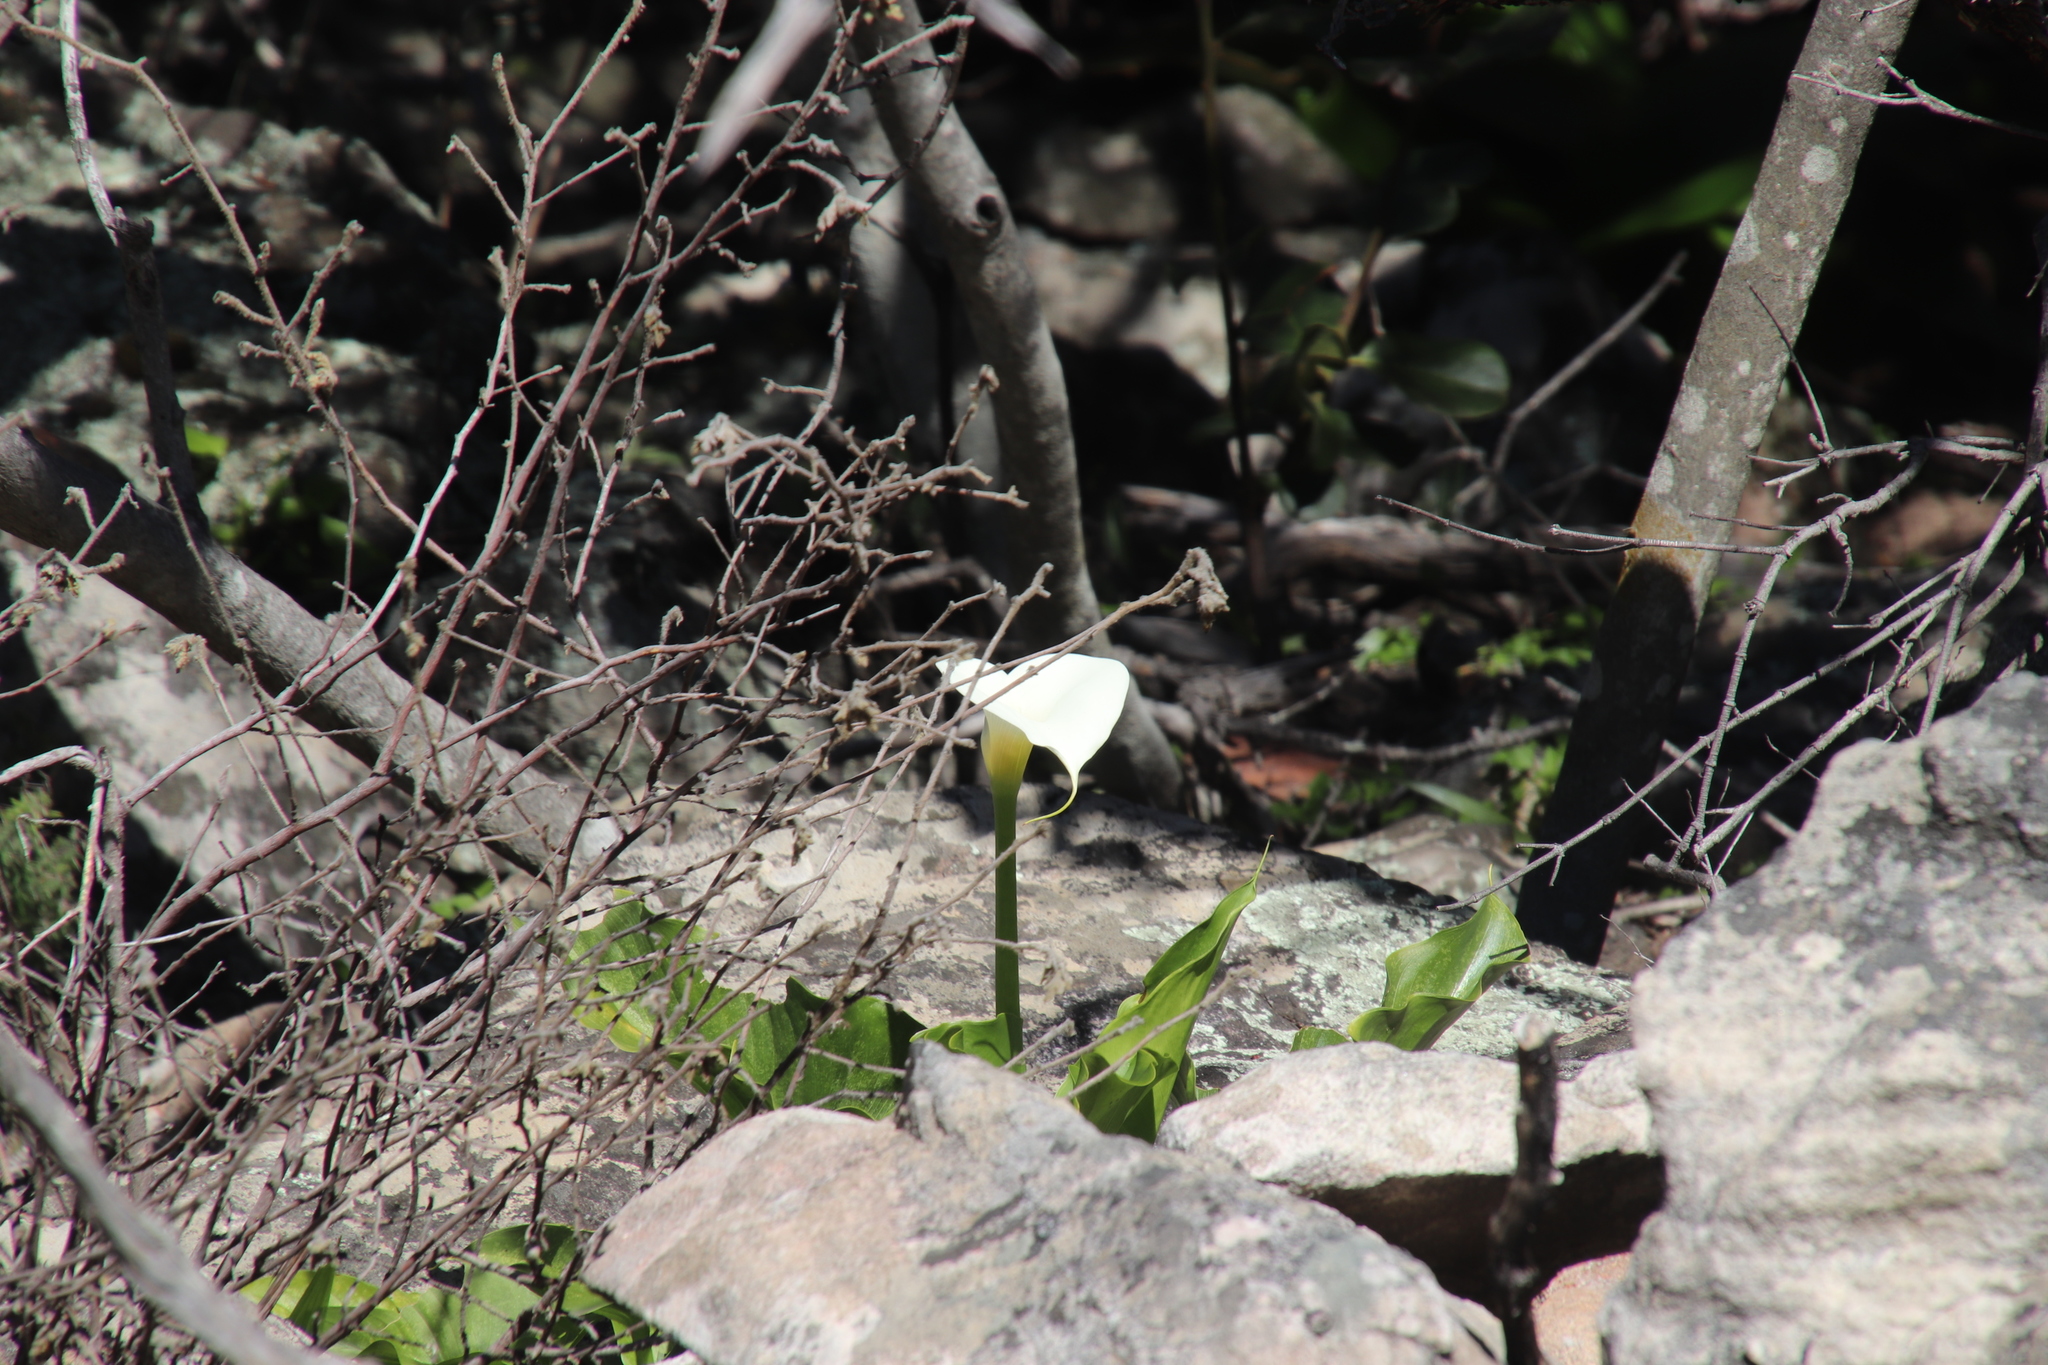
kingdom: Plantae
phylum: Tracheophyta
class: Liliopsida
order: Alismatales
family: Araceae
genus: Zantedeschia
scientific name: Zantedeschia aethiopica
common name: Altar-lily
